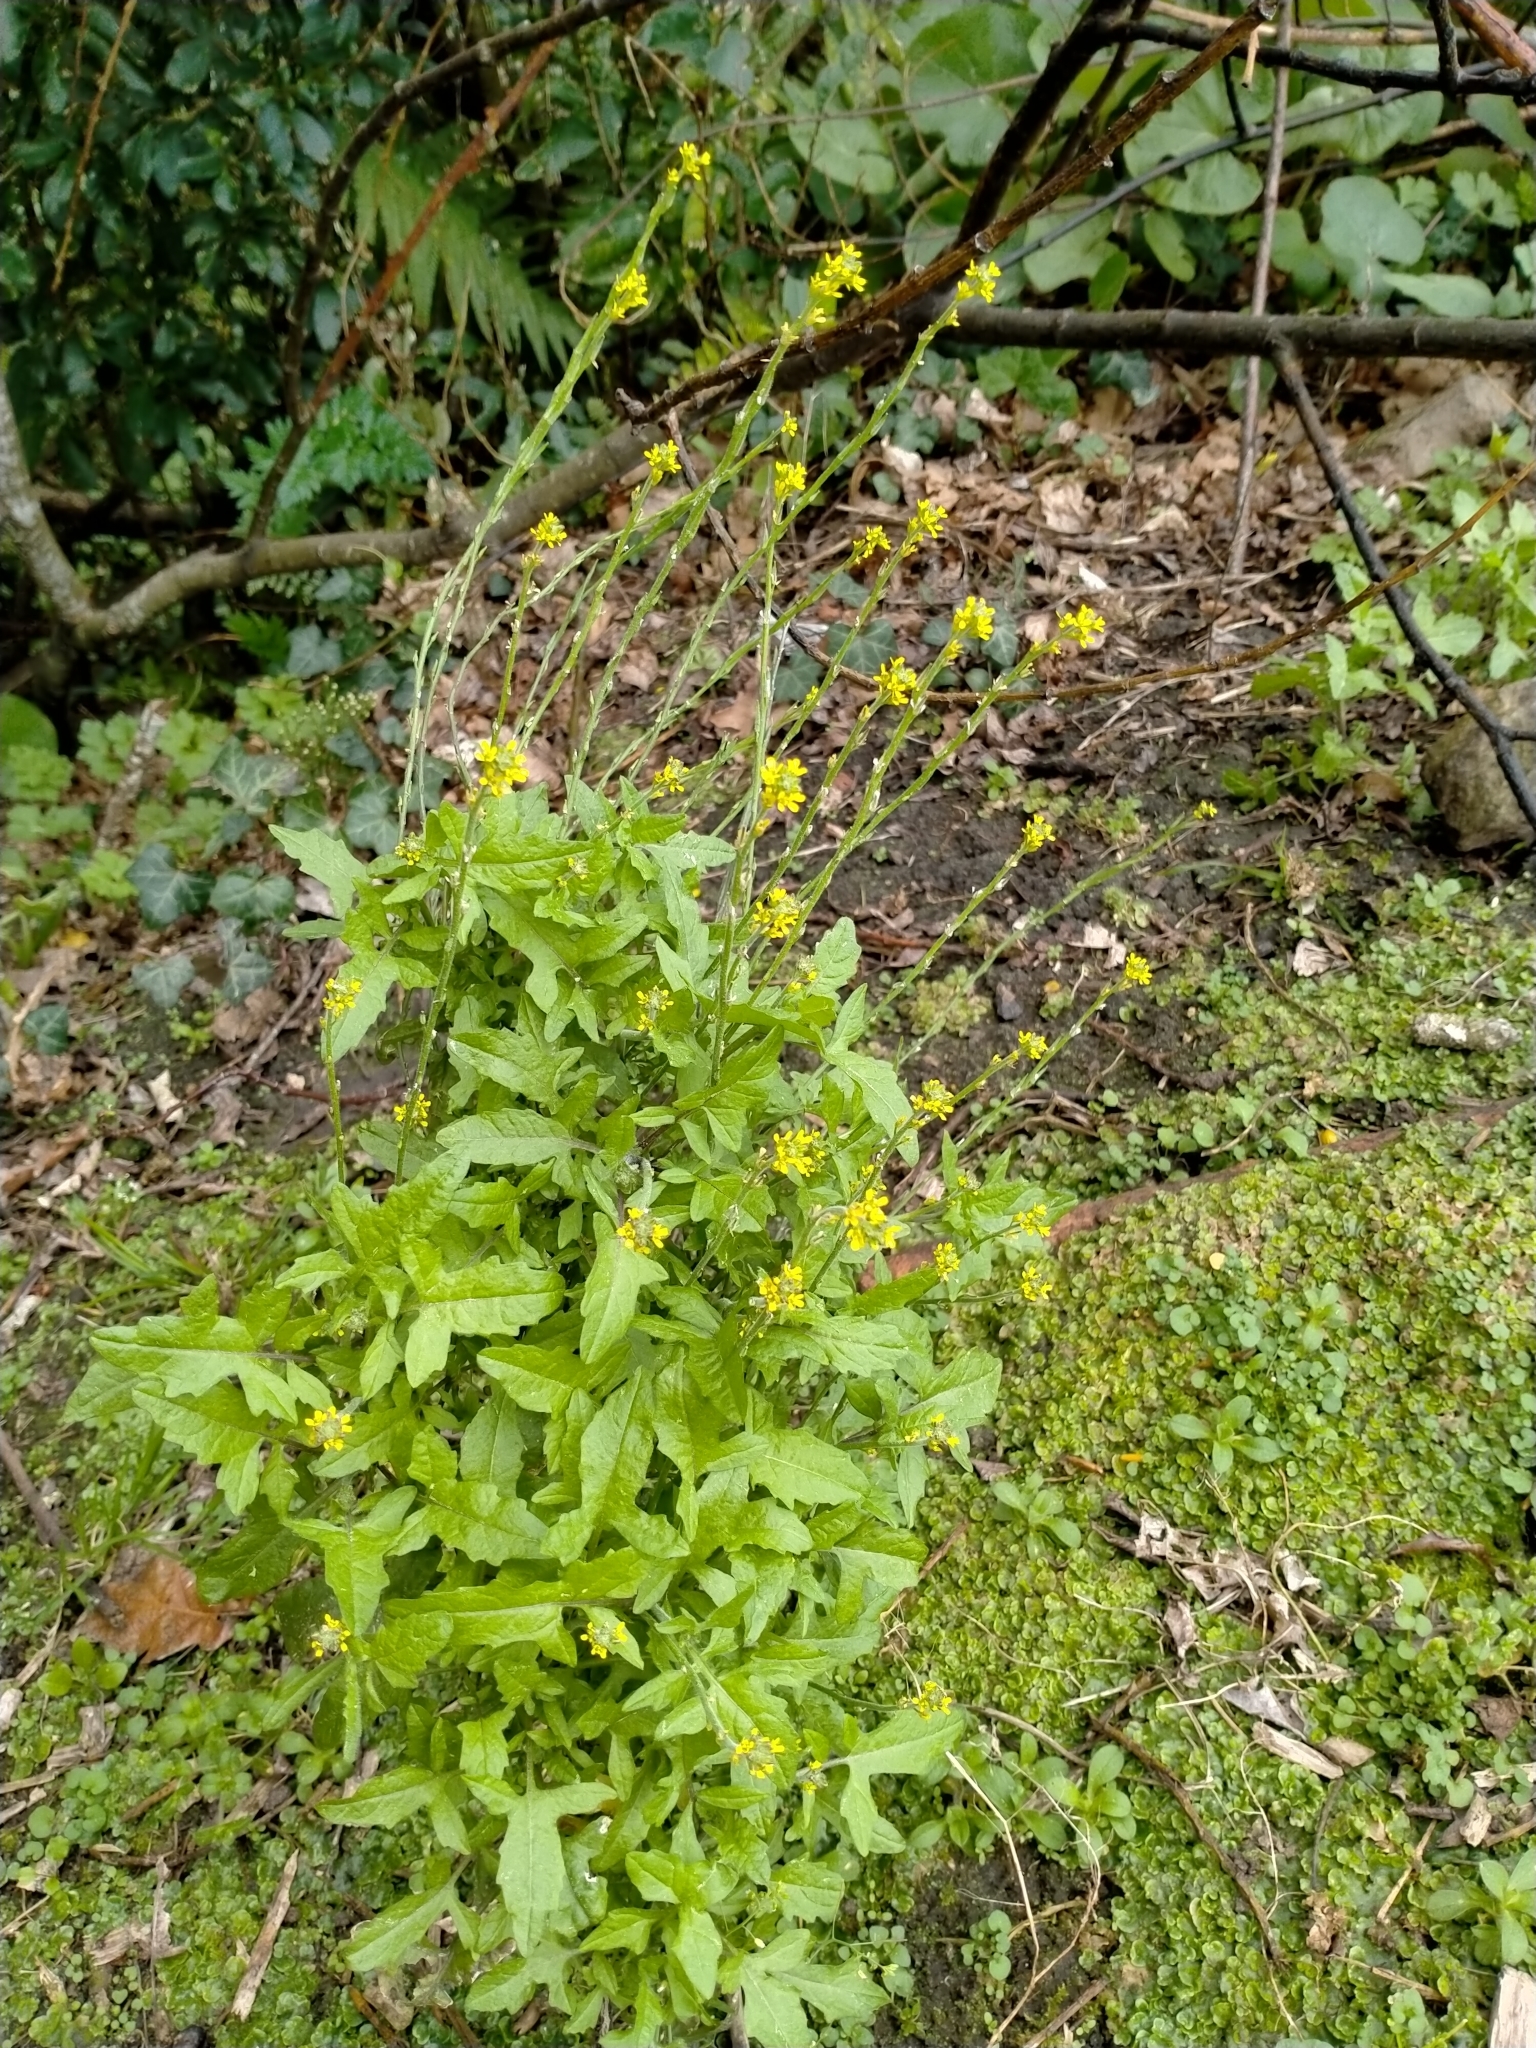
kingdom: Plantae
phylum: Tracheophyta
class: Magnoliopsida
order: Brassicales
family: Brassicaceae
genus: Sisymbrium
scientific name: Sisymbrium officinale
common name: Hedge mustard
